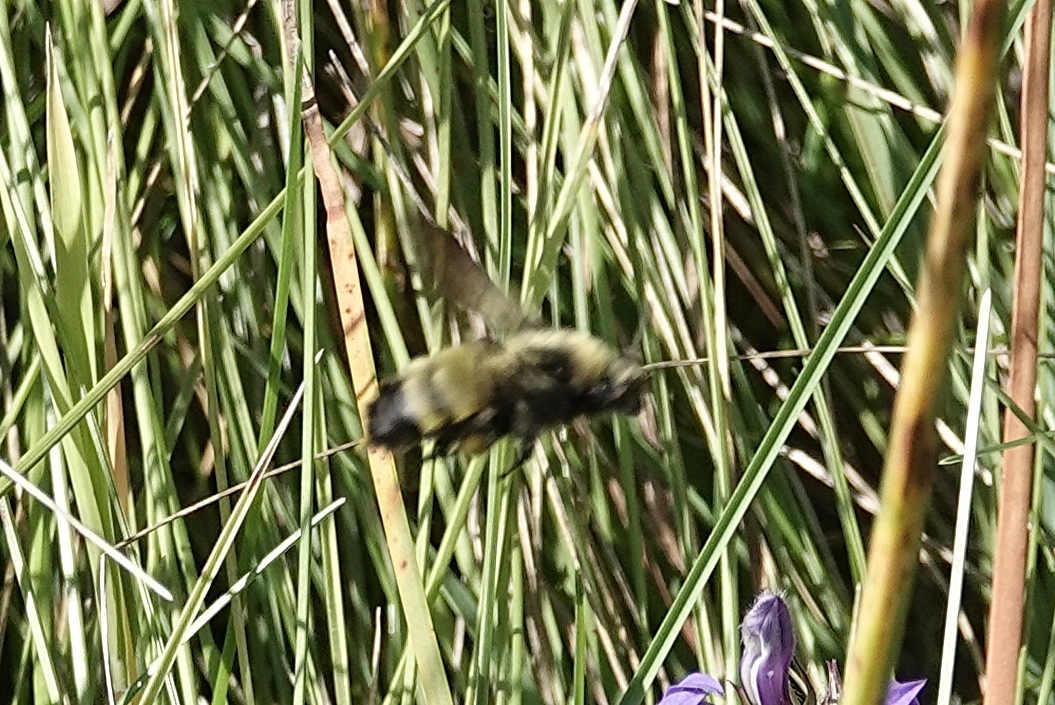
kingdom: Animalia
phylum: Arthropoda
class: Insecta
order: Hymenoptera
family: Apidae
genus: Bombus
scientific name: Bombus nevadensis
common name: Nevada bumble bee
